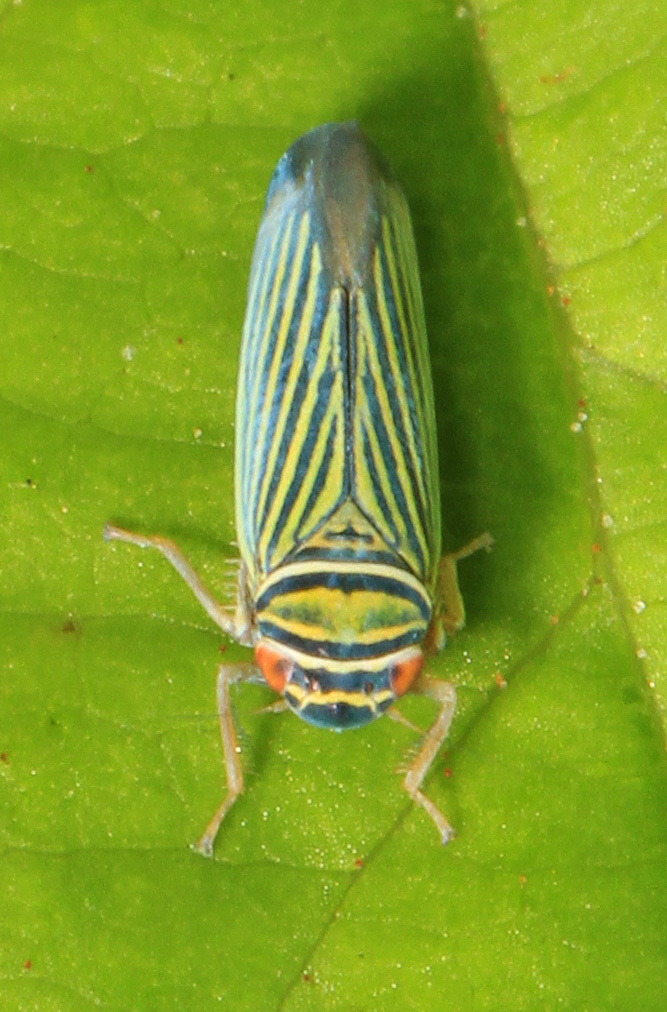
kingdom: Animalia
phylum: Arthropoda
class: Insecta
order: Hemiptera
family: Cicadellidae
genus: Tylozygus
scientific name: Tylozygus bifidus
